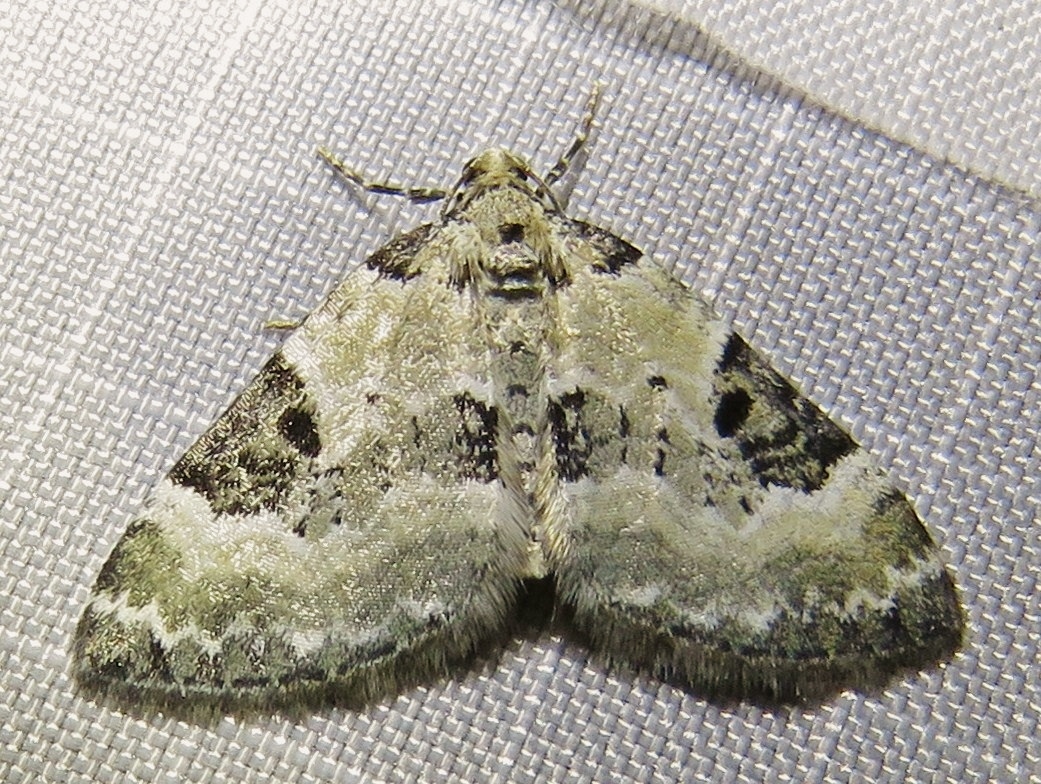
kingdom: Animalia
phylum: Arthropoda
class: Insecta
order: Lepidoptera
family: Geometridae
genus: Perizoma
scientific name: Perizoma blandiata
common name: Pretty pinion
